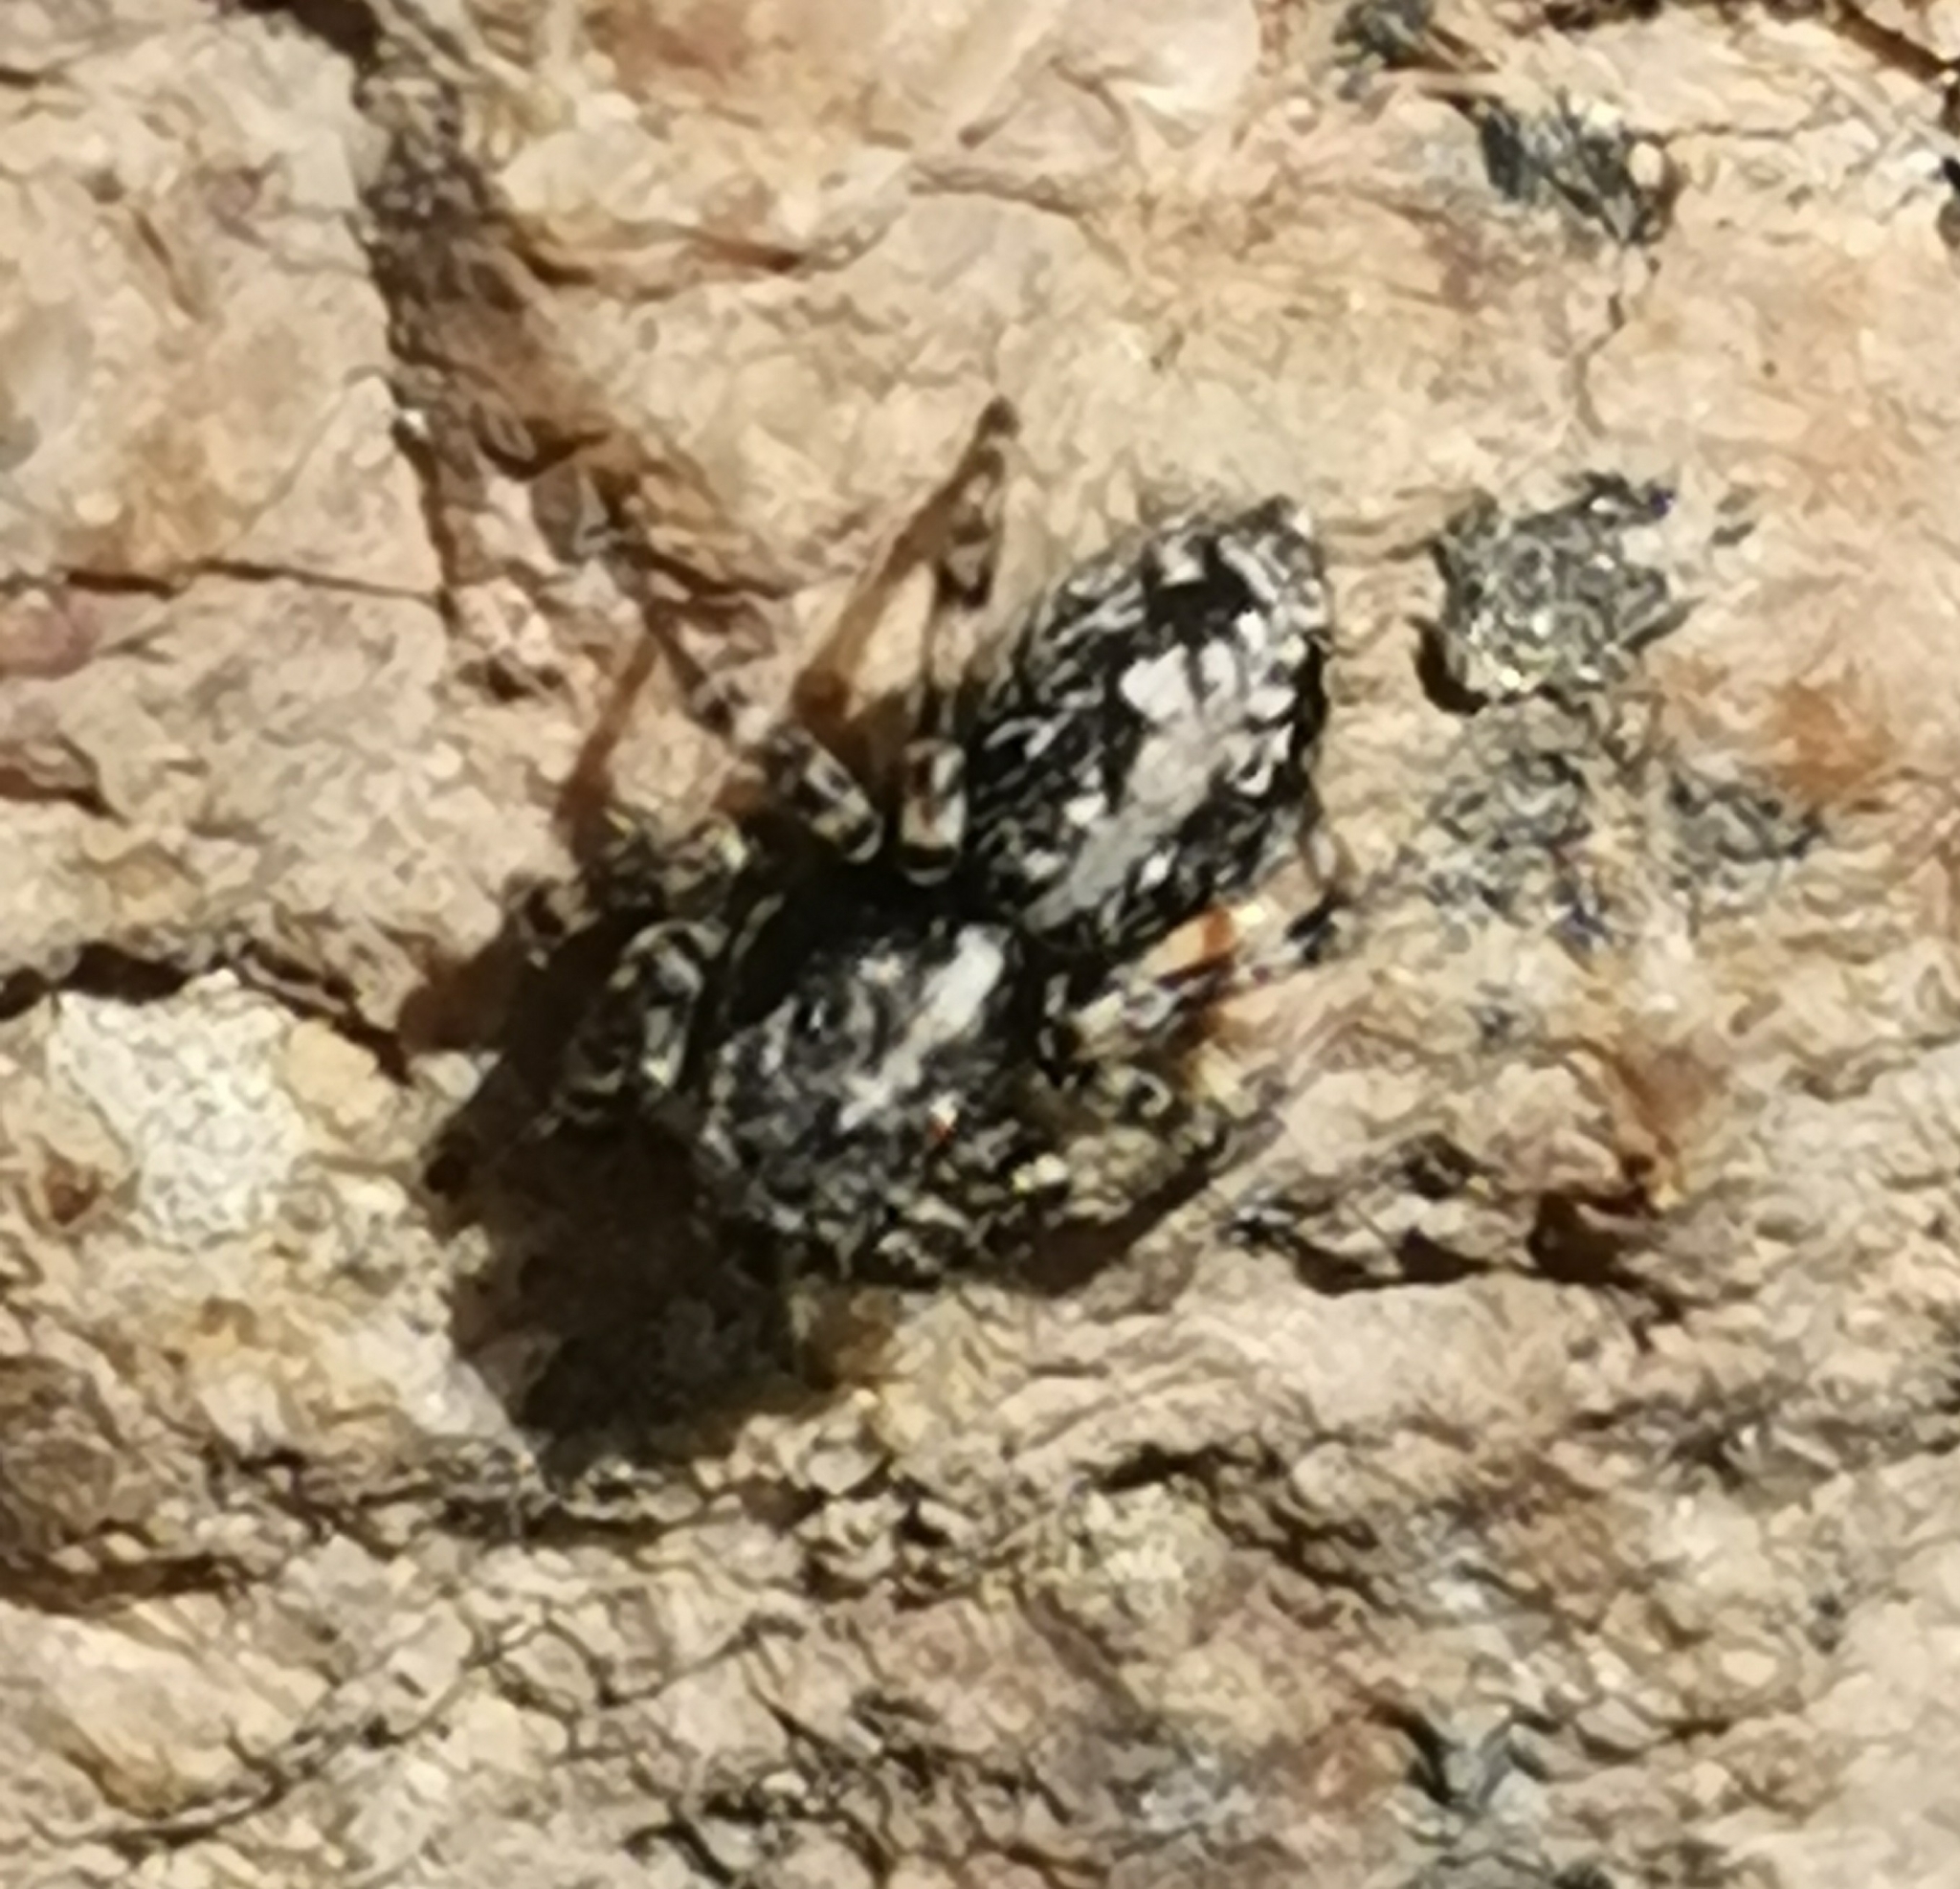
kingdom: Animalia
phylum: Arthropoda
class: Arachnida
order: Araneae
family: Salticidae
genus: Attulus
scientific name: Attulus terebratus
